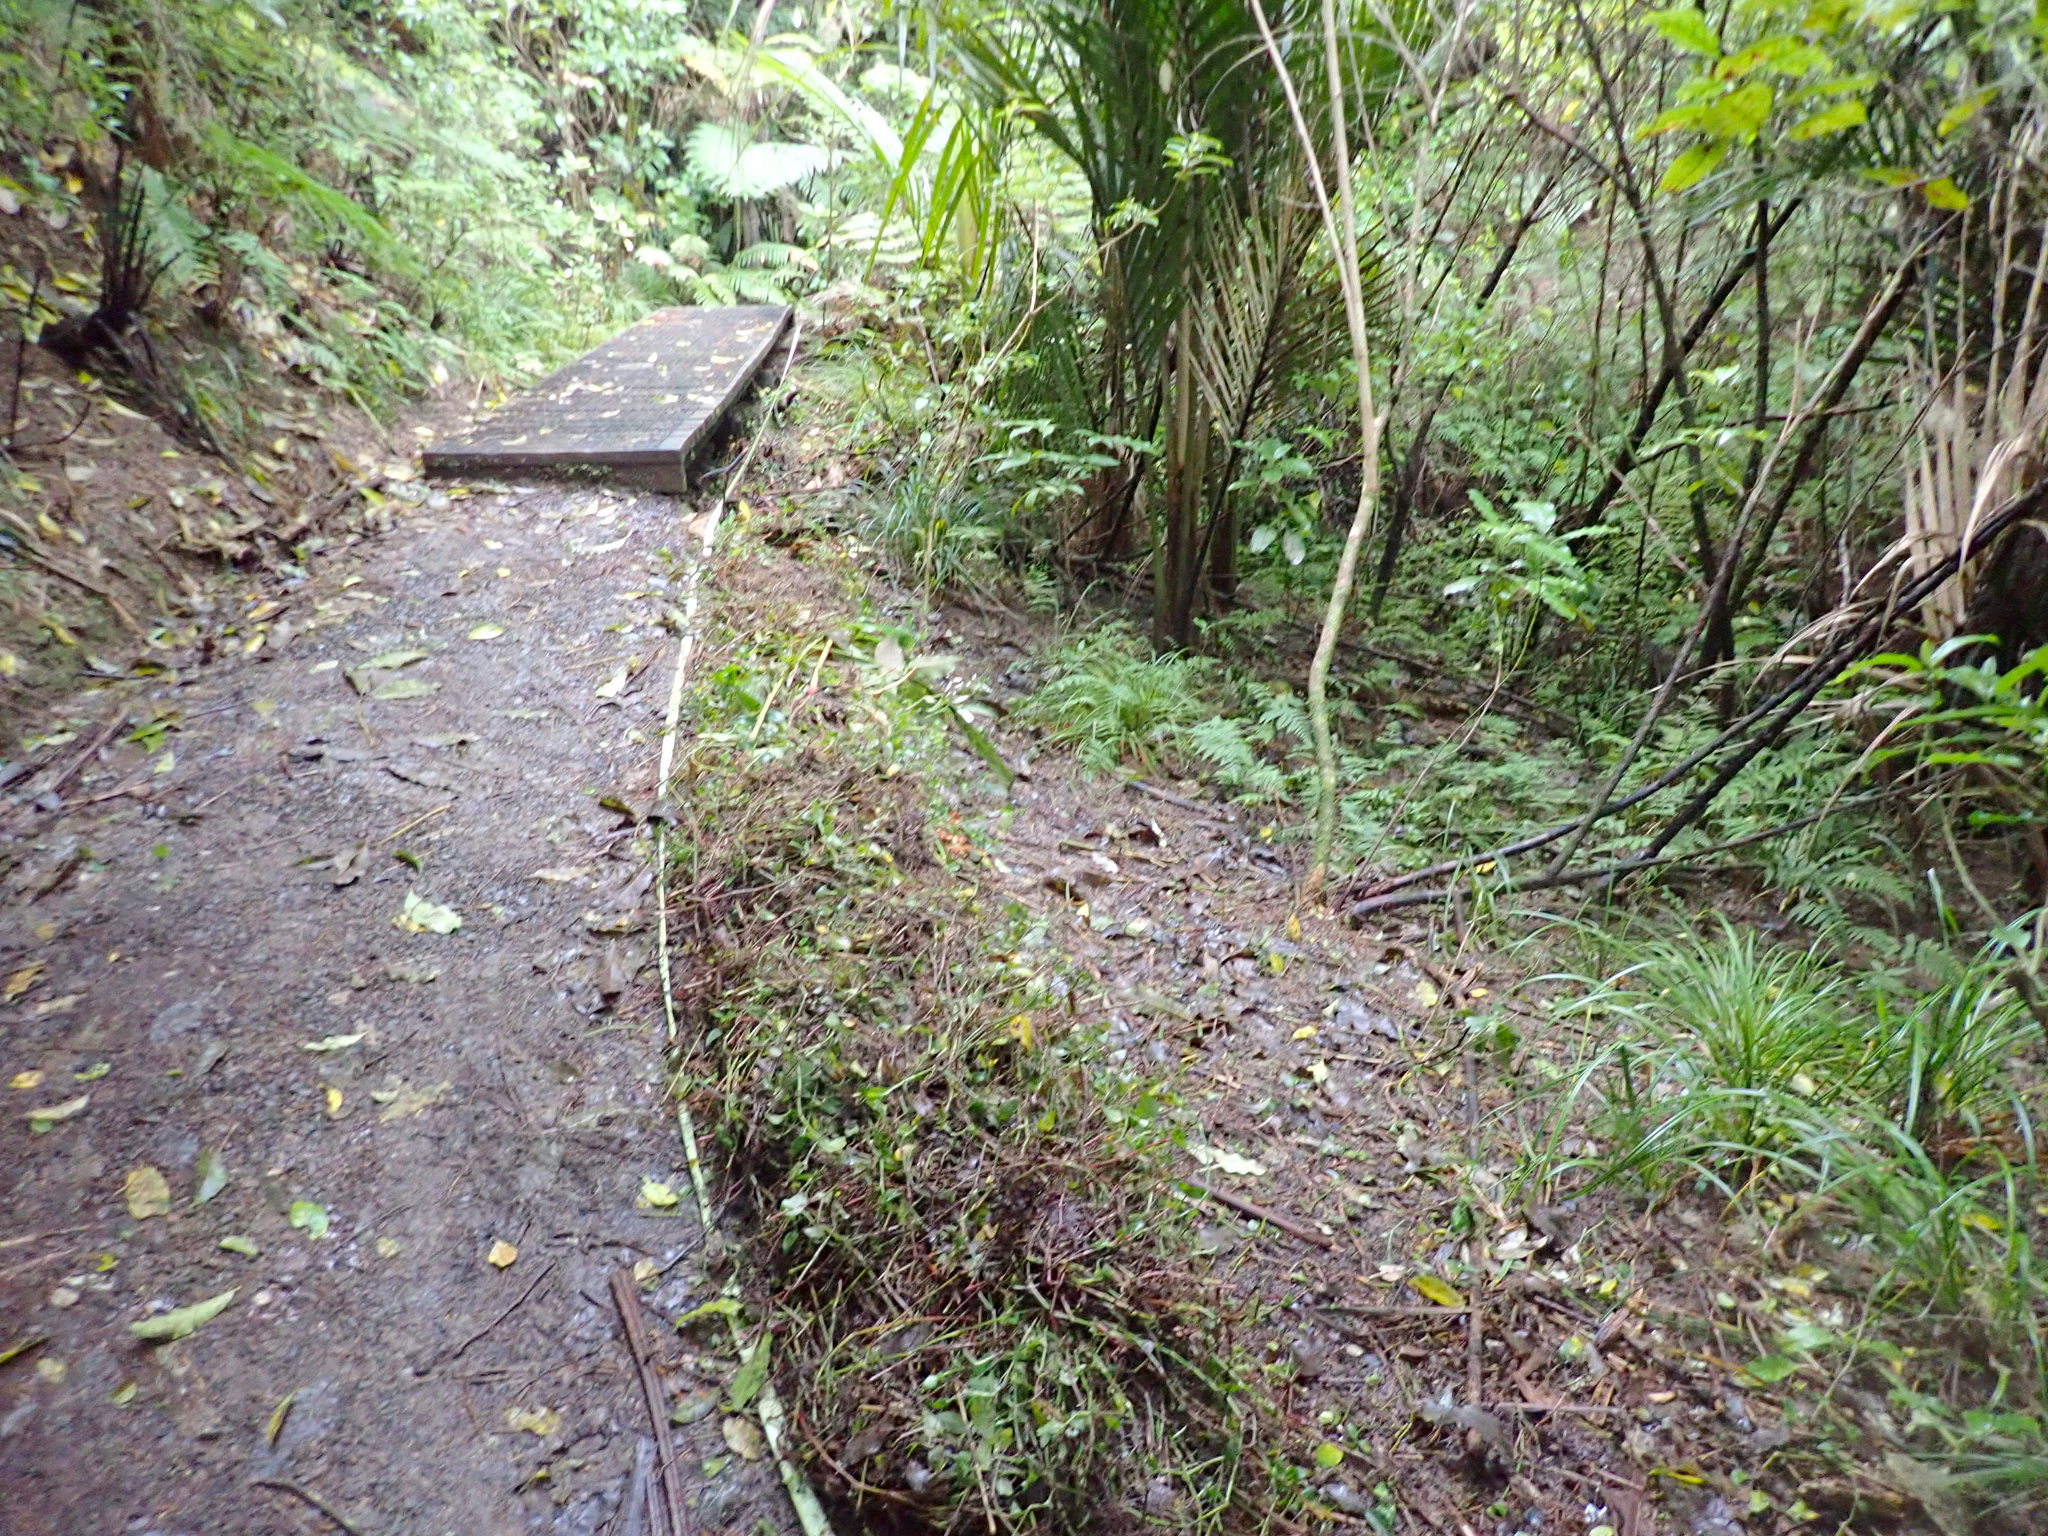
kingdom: Plantae
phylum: Tracheophyta
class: Liliopsida
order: Commelinales
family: Commelinaceae
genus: Tradescantia
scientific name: Tradescantia fluminensis
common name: Wandering-jew
